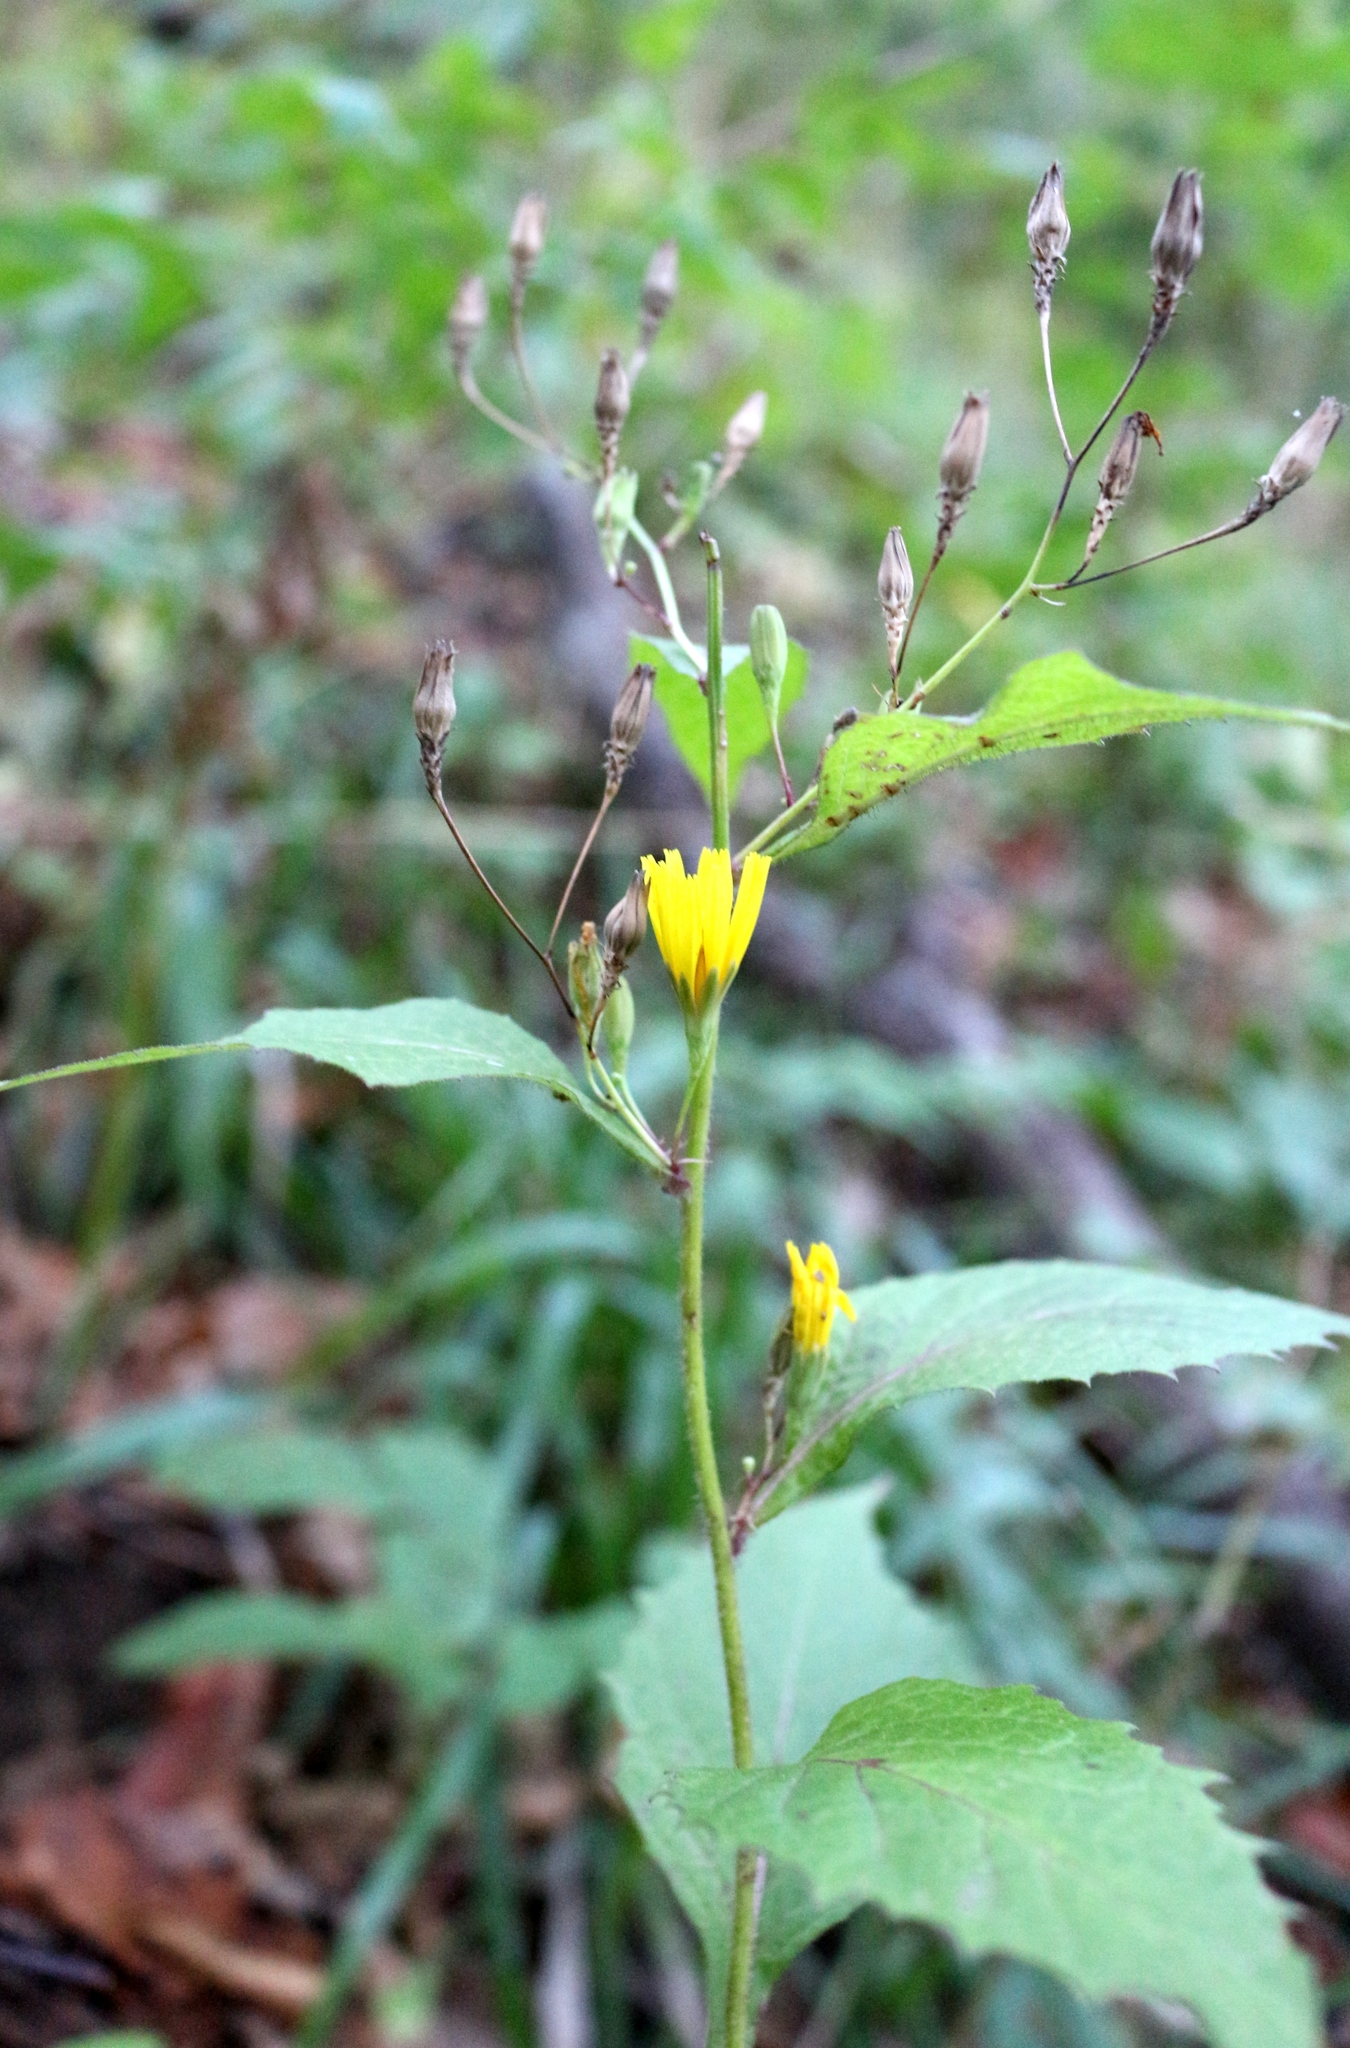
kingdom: Plantae
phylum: Tracheophyta
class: Magnoliopsida
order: Asterales
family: Asteraceae
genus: Lapsana
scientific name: Lapsana communis
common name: Nipplewort
